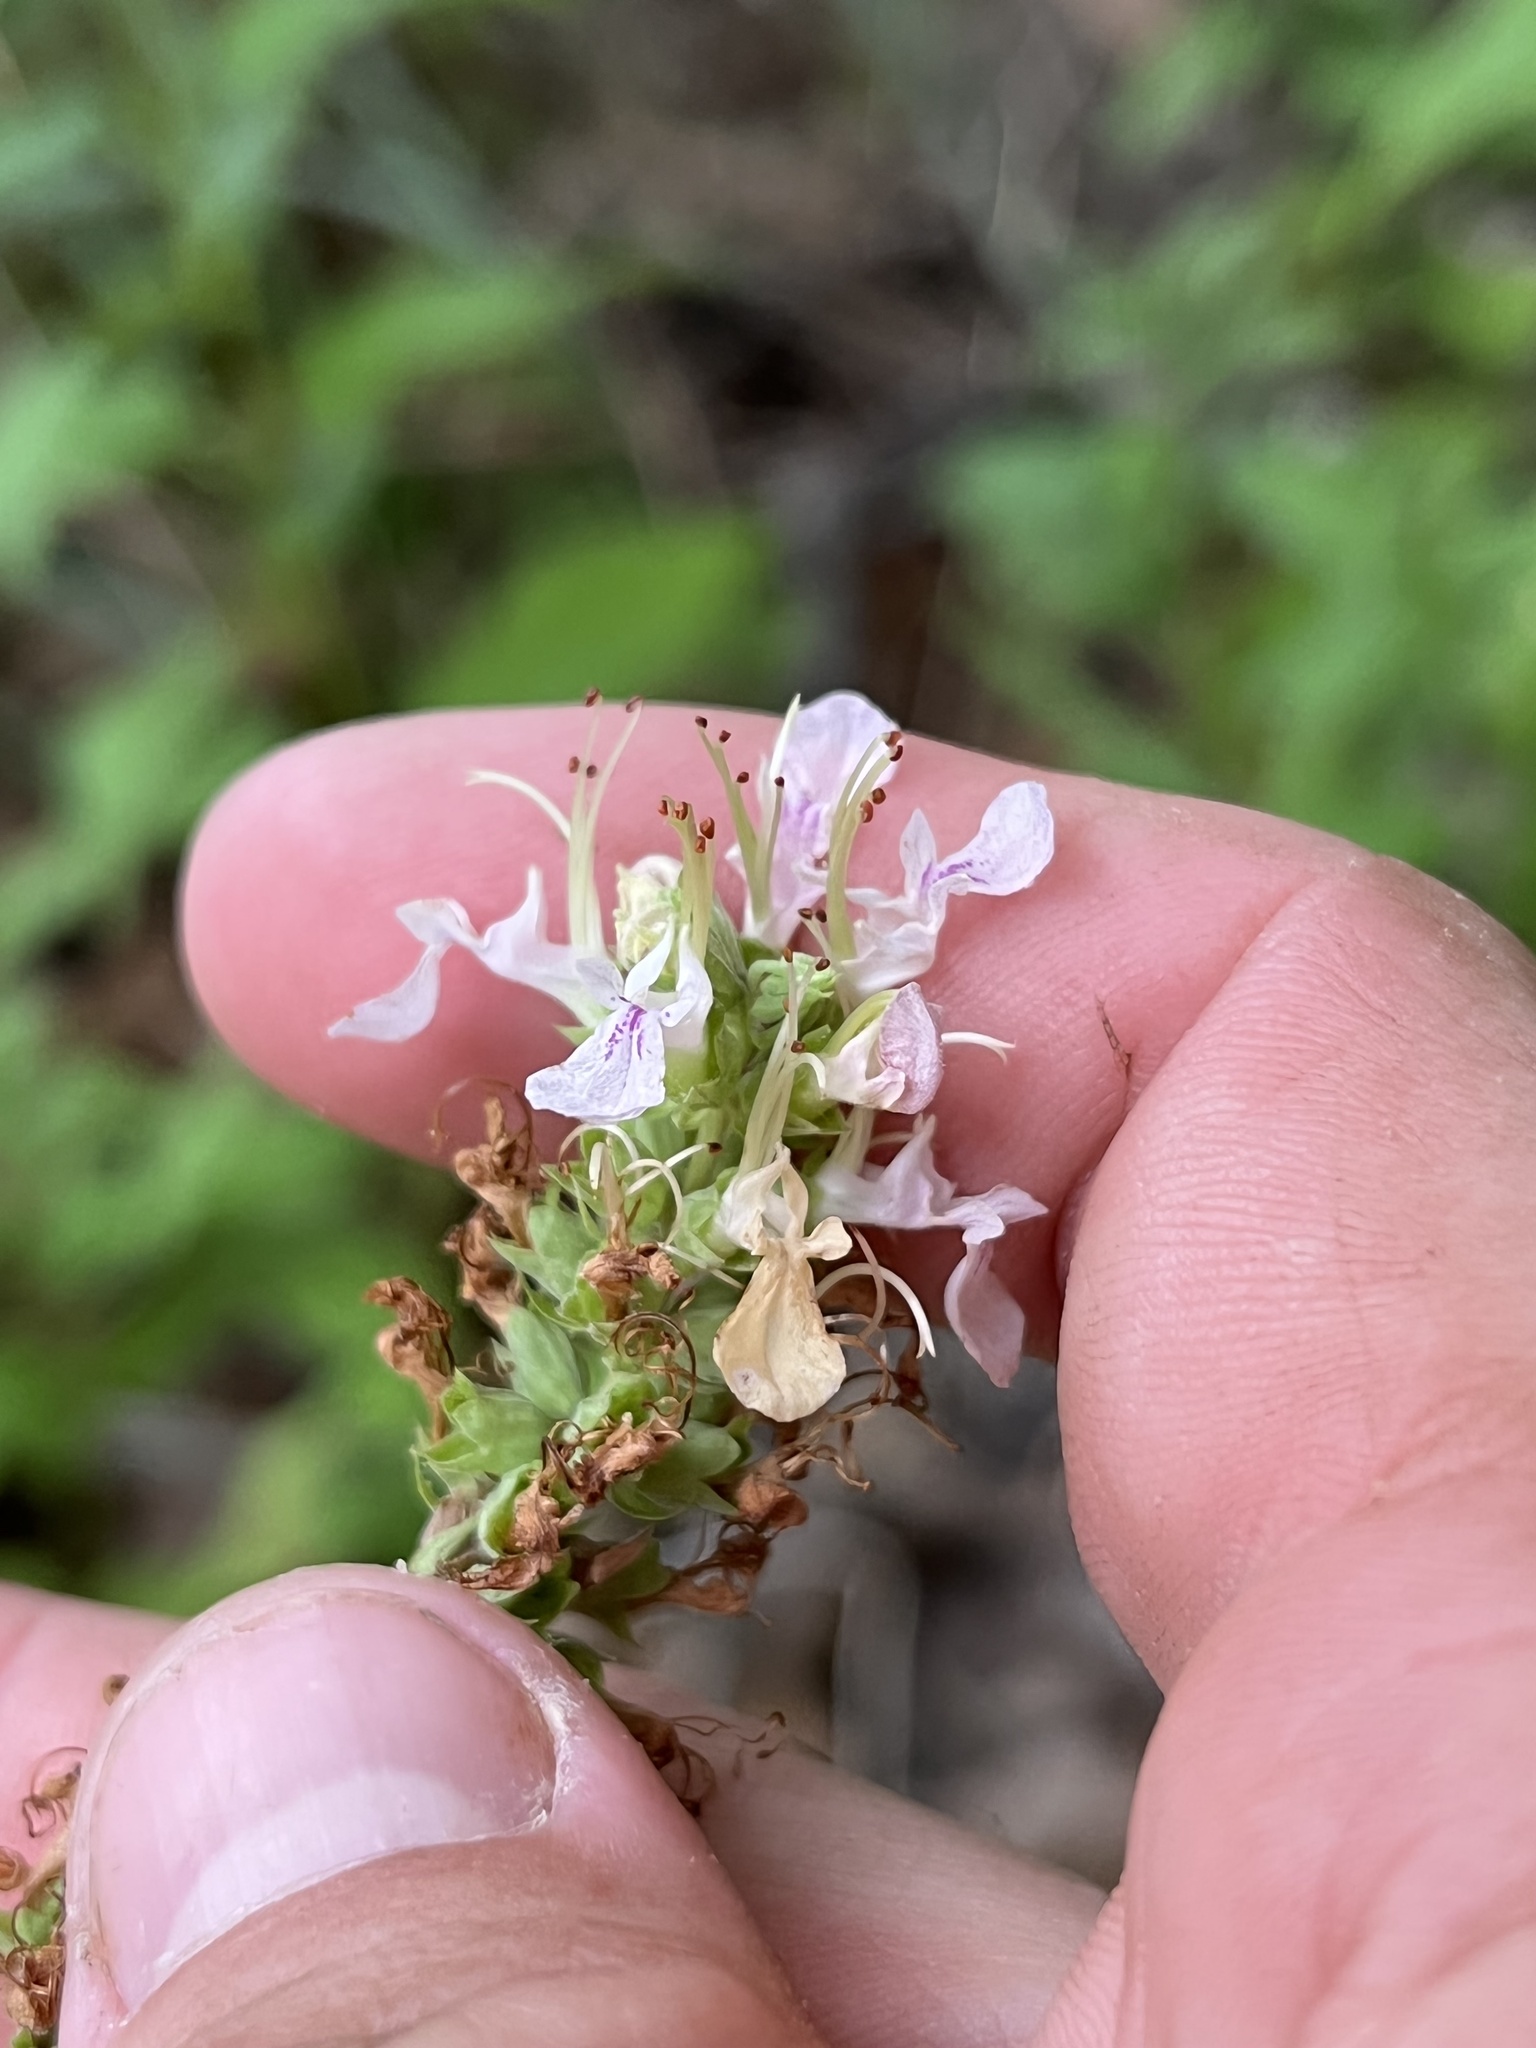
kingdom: Plantae
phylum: Tracheophyta
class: Magnoliopsida
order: Lamiales
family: Lamiaceae
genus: Teucrium
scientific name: Teucrium canadense
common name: American germander
